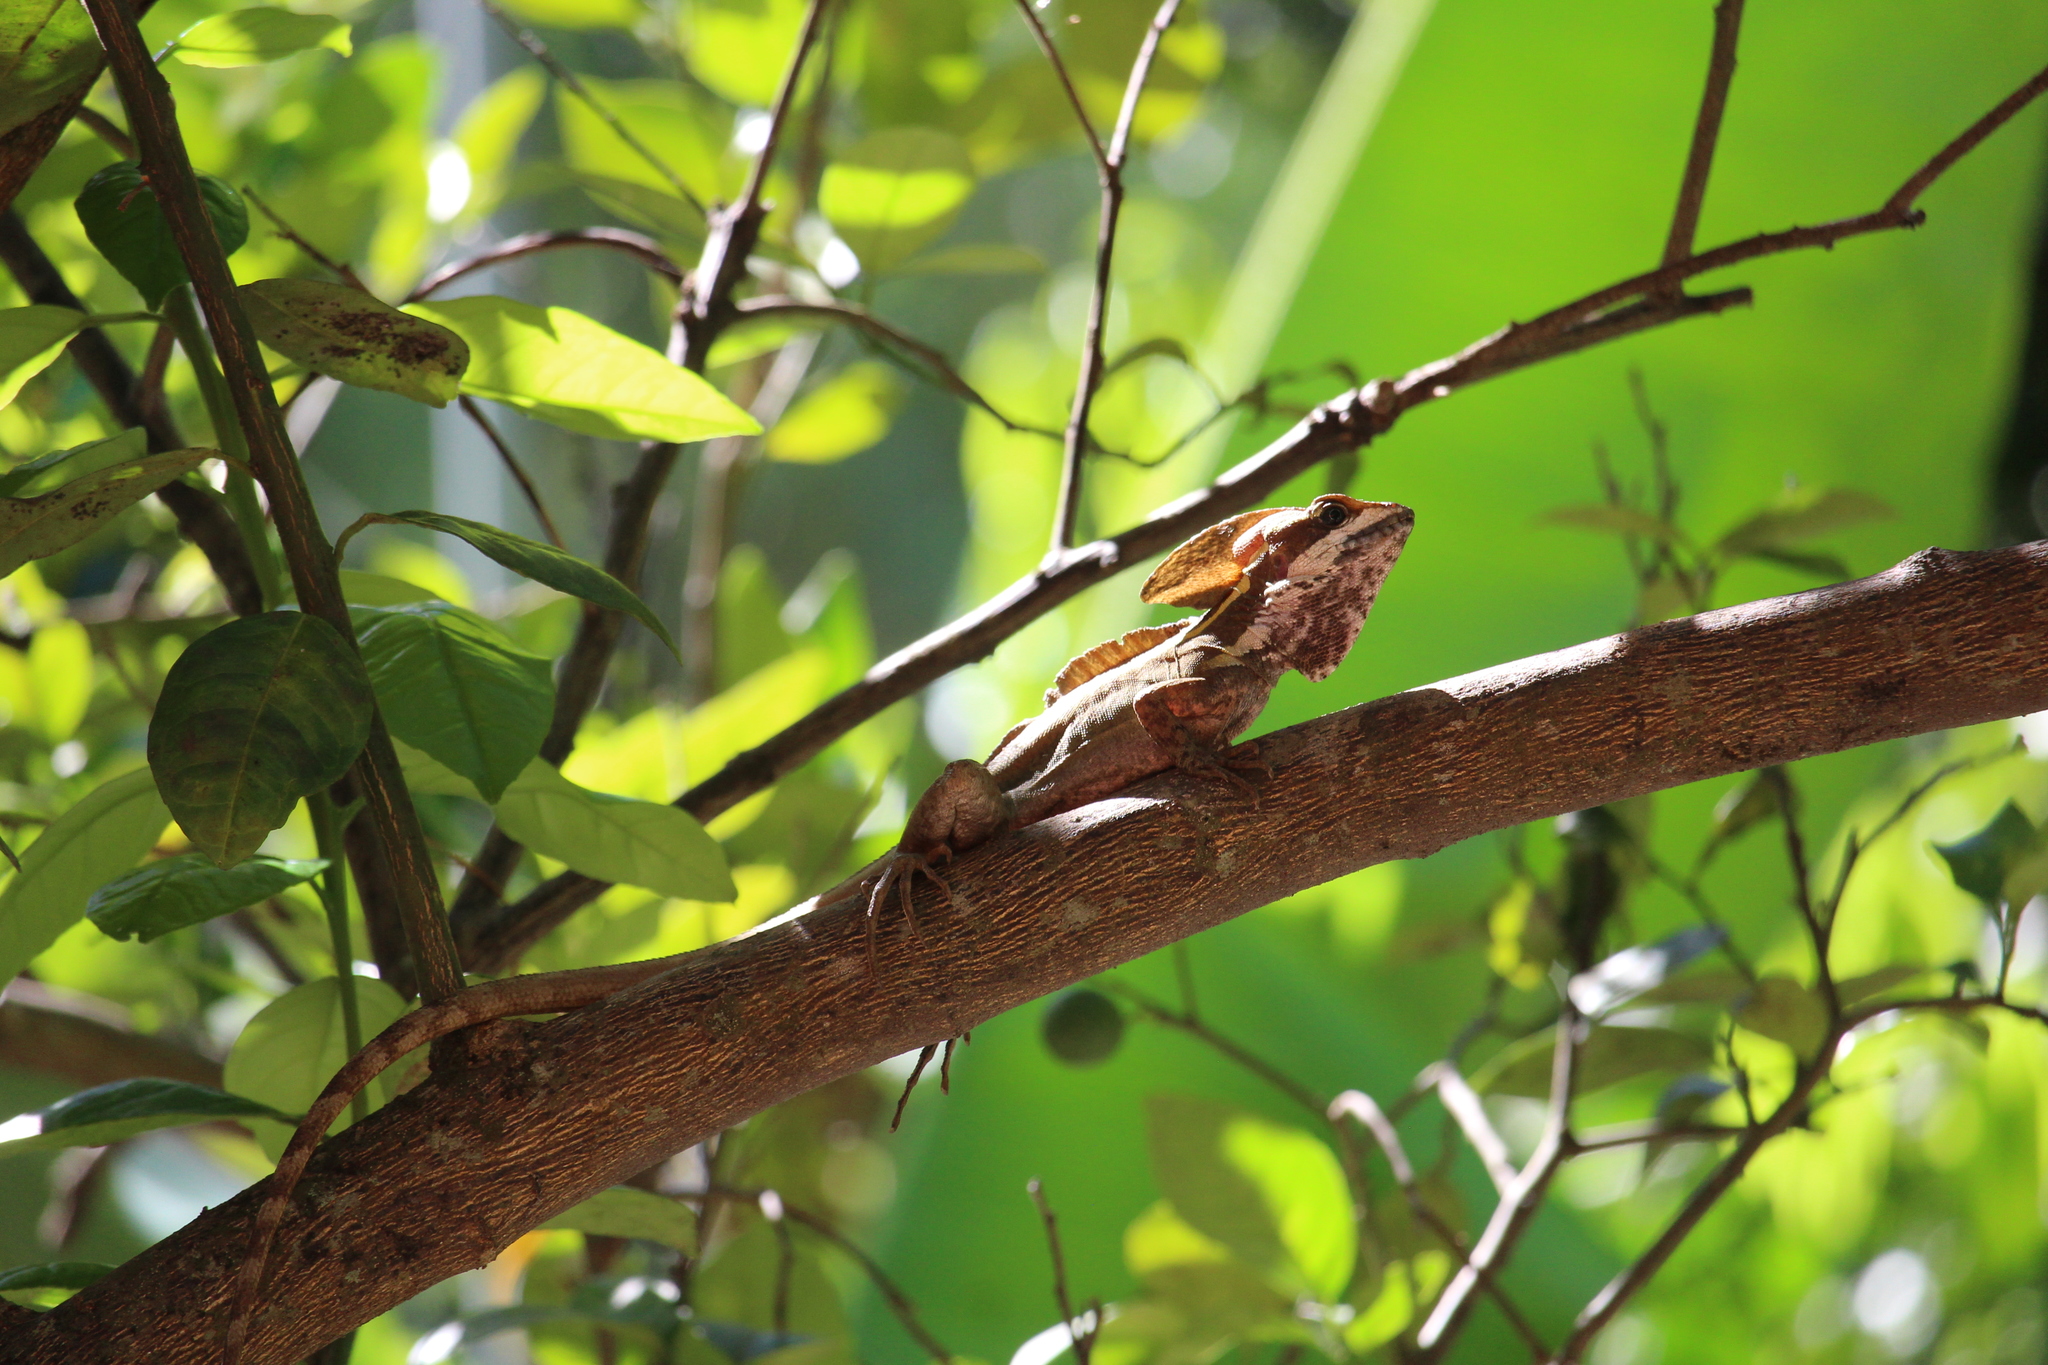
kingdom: Animalia
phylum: Chordata
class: Squamata
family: Corytophanidae
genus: Basiliscus
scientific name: Basiliscus vittatus
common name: Brown basilisk
